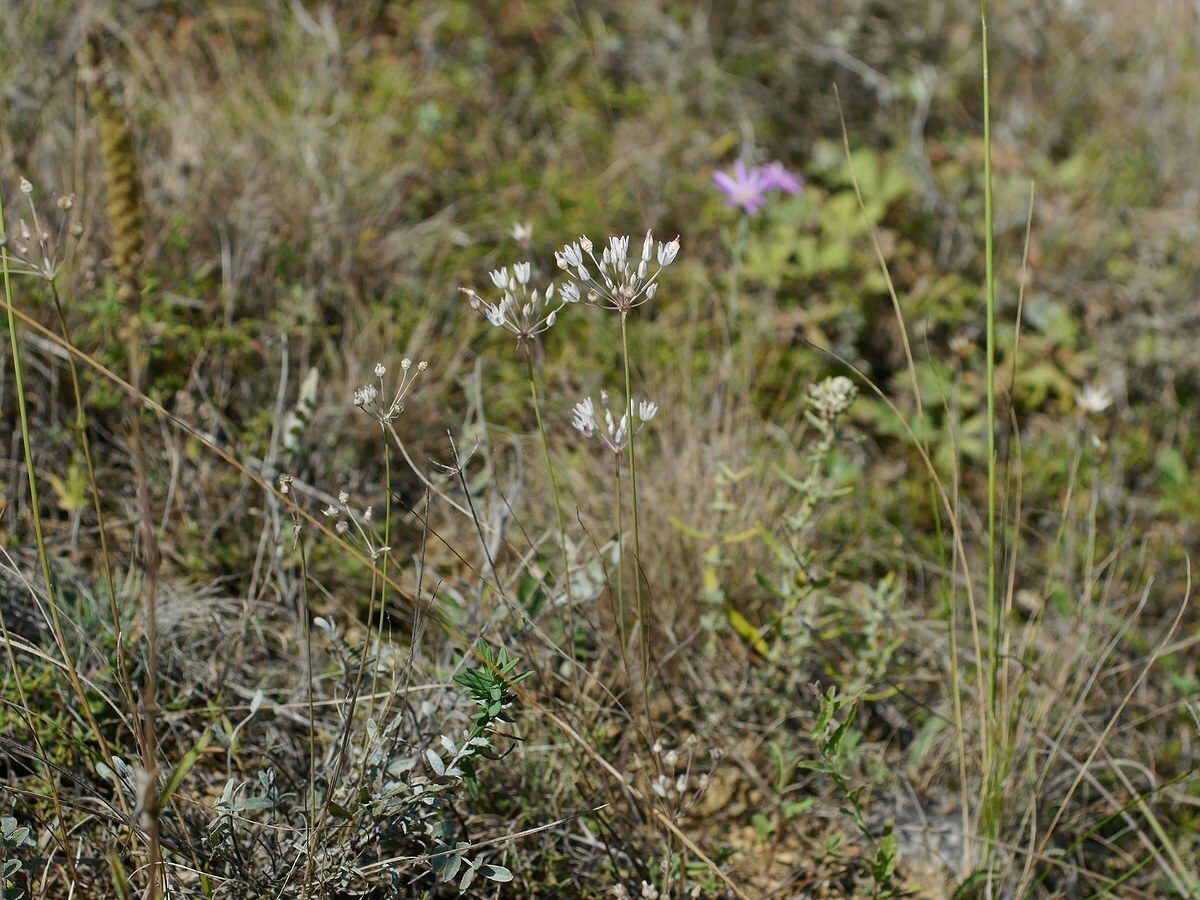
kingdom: Plantae
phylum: Tracheophyta
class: Liliopsida
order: Asparagales
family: Amaryllidaceae
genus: Allium
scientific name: Allium inaequale
